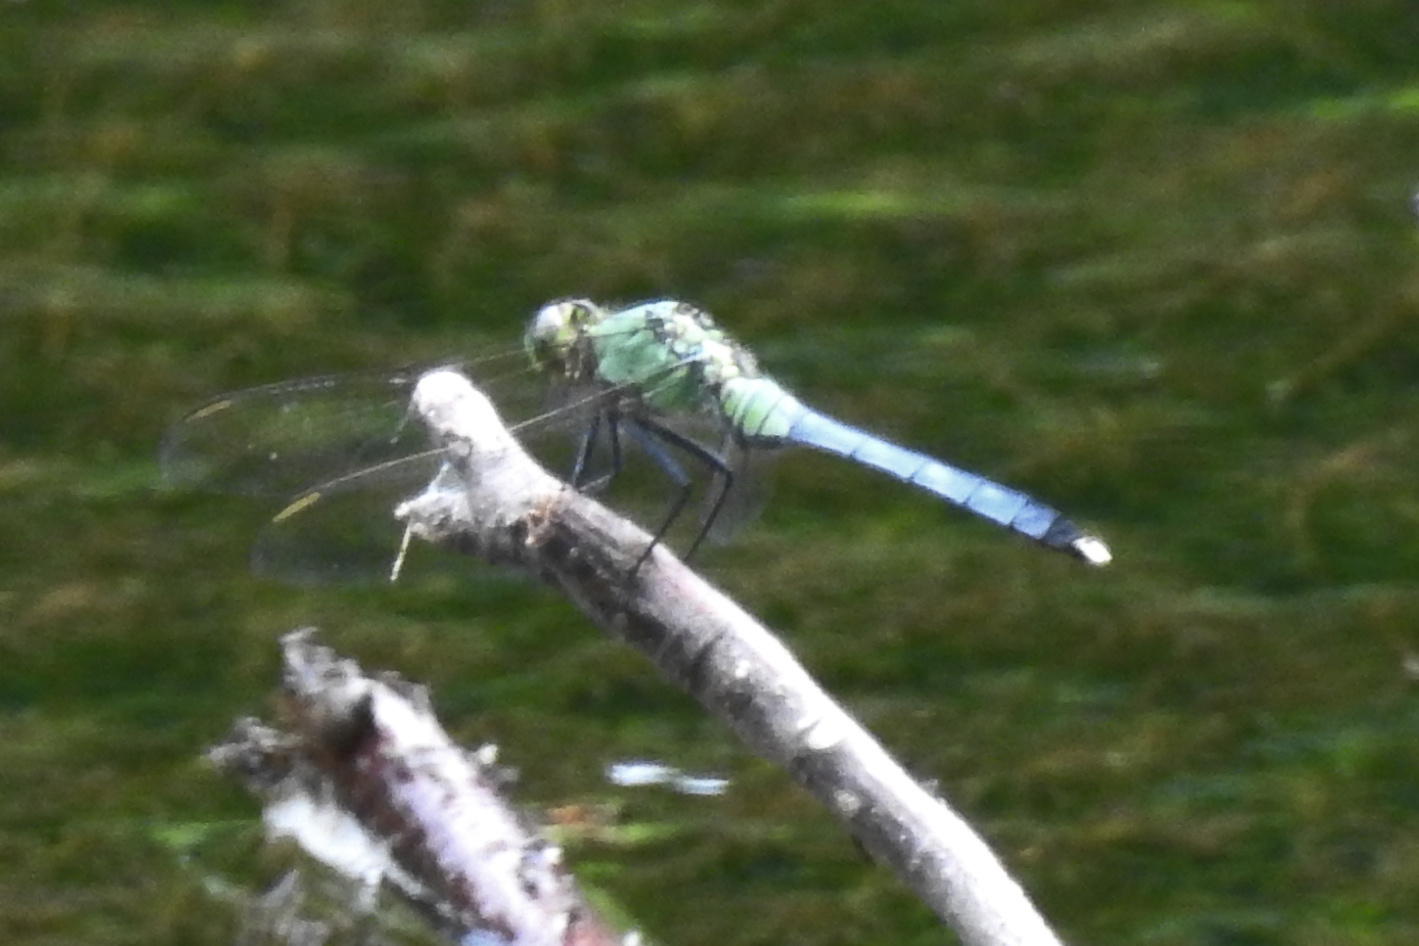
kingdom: Animalia
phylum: Arthropoda
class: Insecta
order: Odonata
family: Libellulidae
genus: Erythemis
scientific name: Erythemis simplicicollis
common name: Eastern pondhawk
